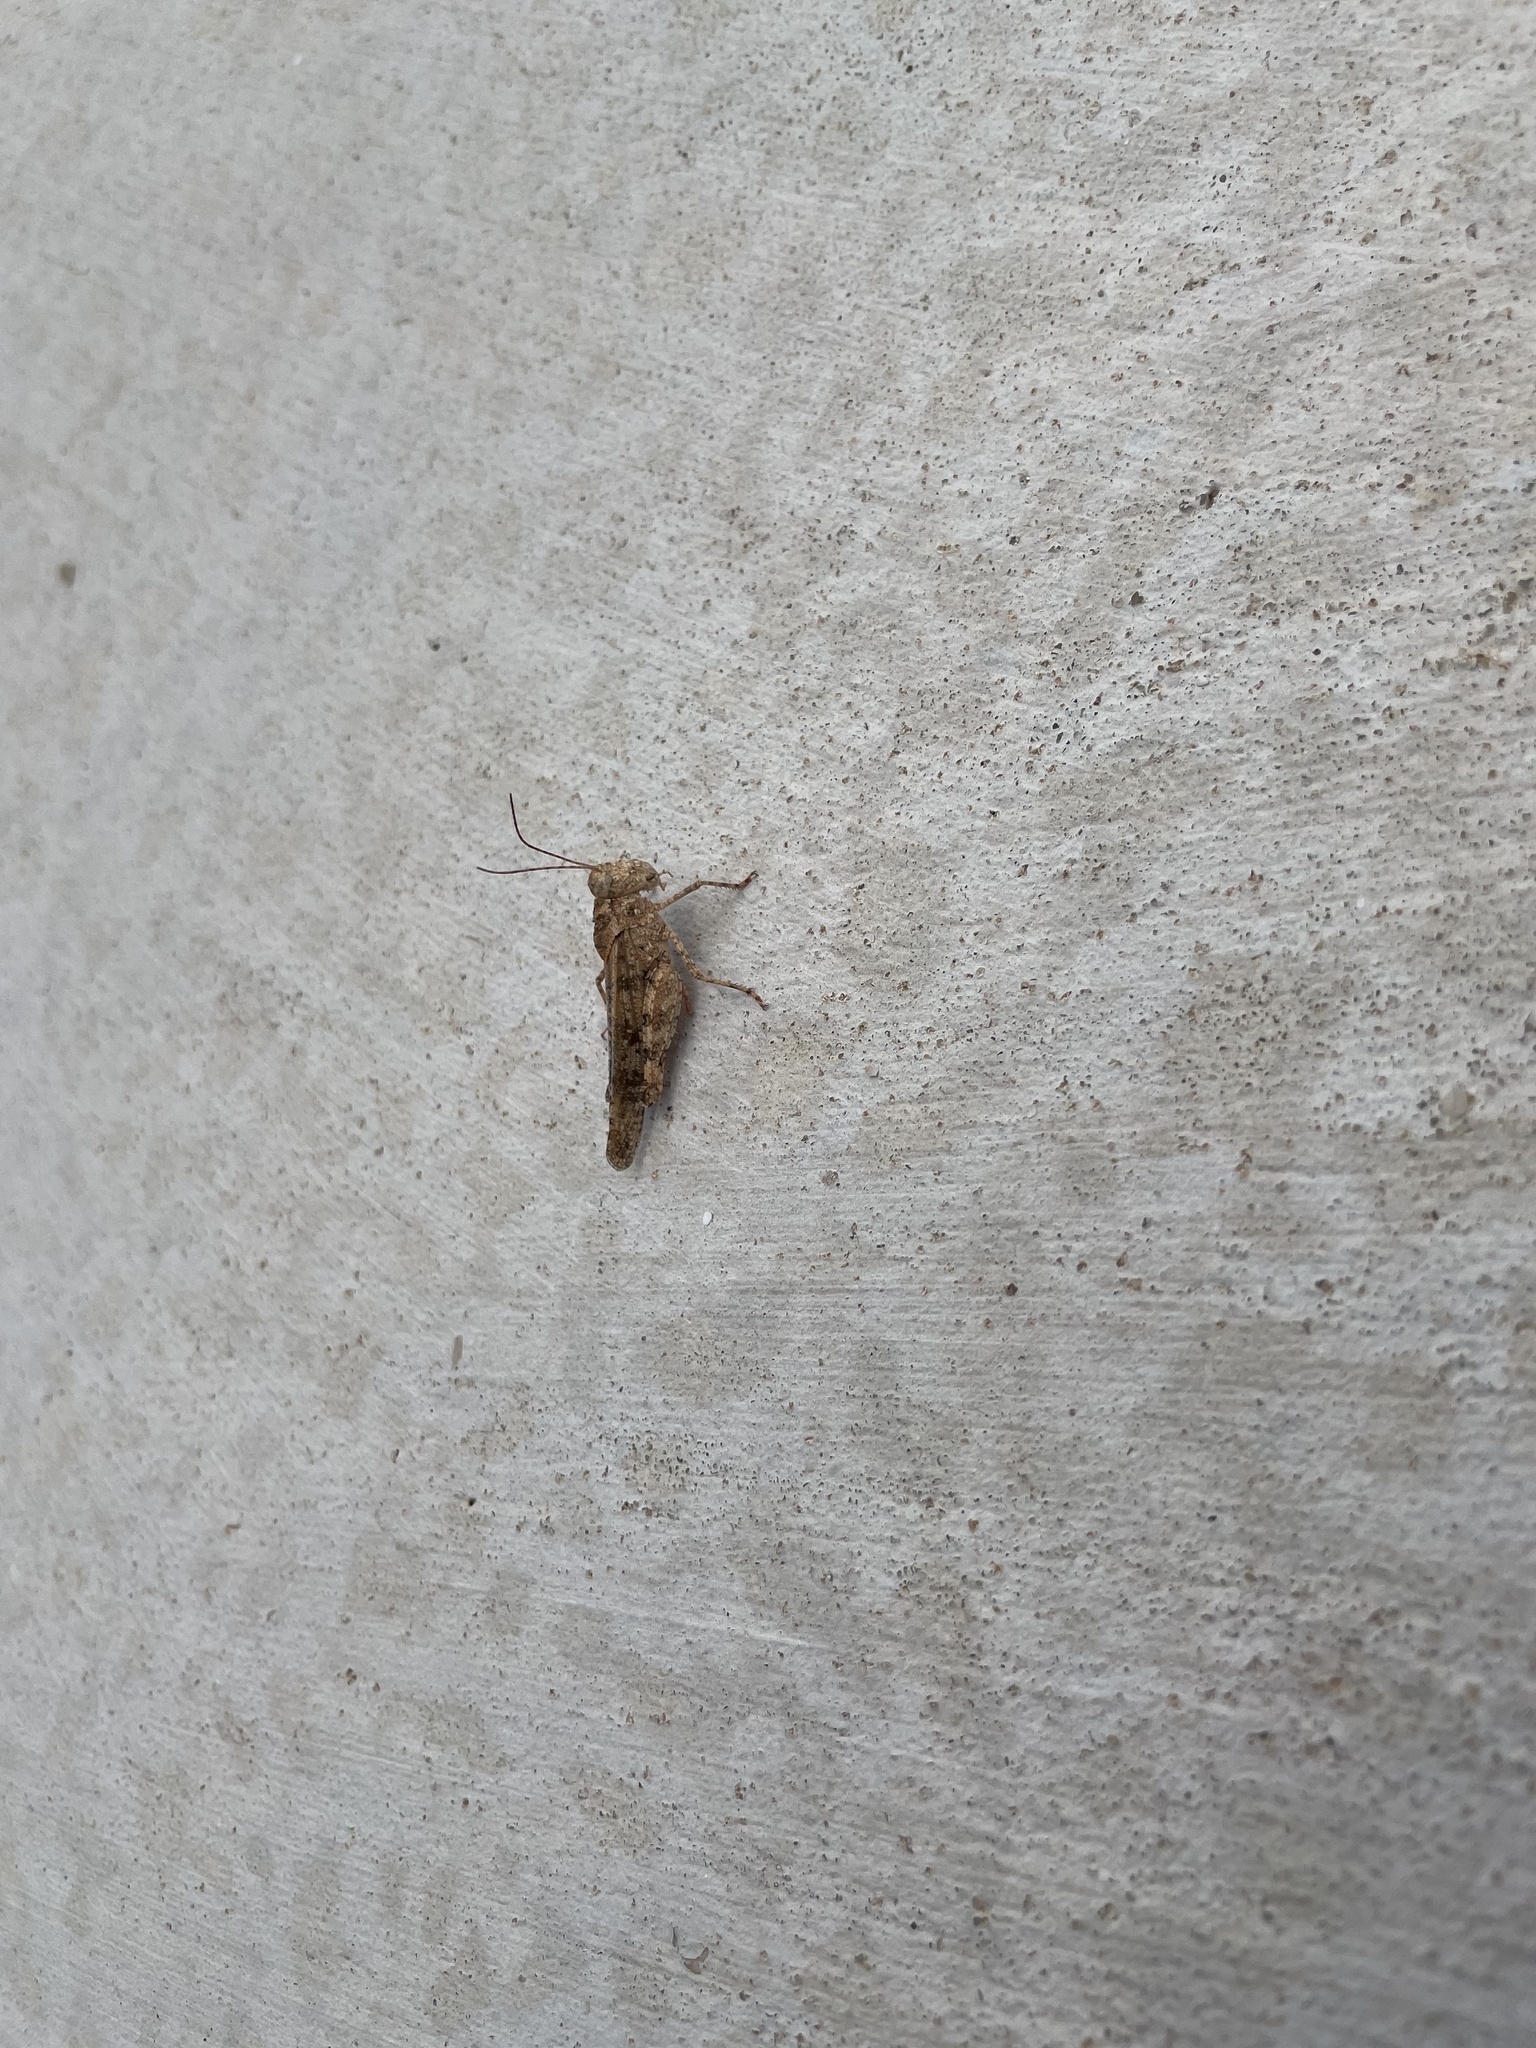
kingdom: Animalia
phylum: Arthropoda
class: Insecta
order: Orthoptera
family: Acrididae
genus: Spharagemon
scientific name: Spharagemon cristatum
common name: Ridgeback sand grasshopper
